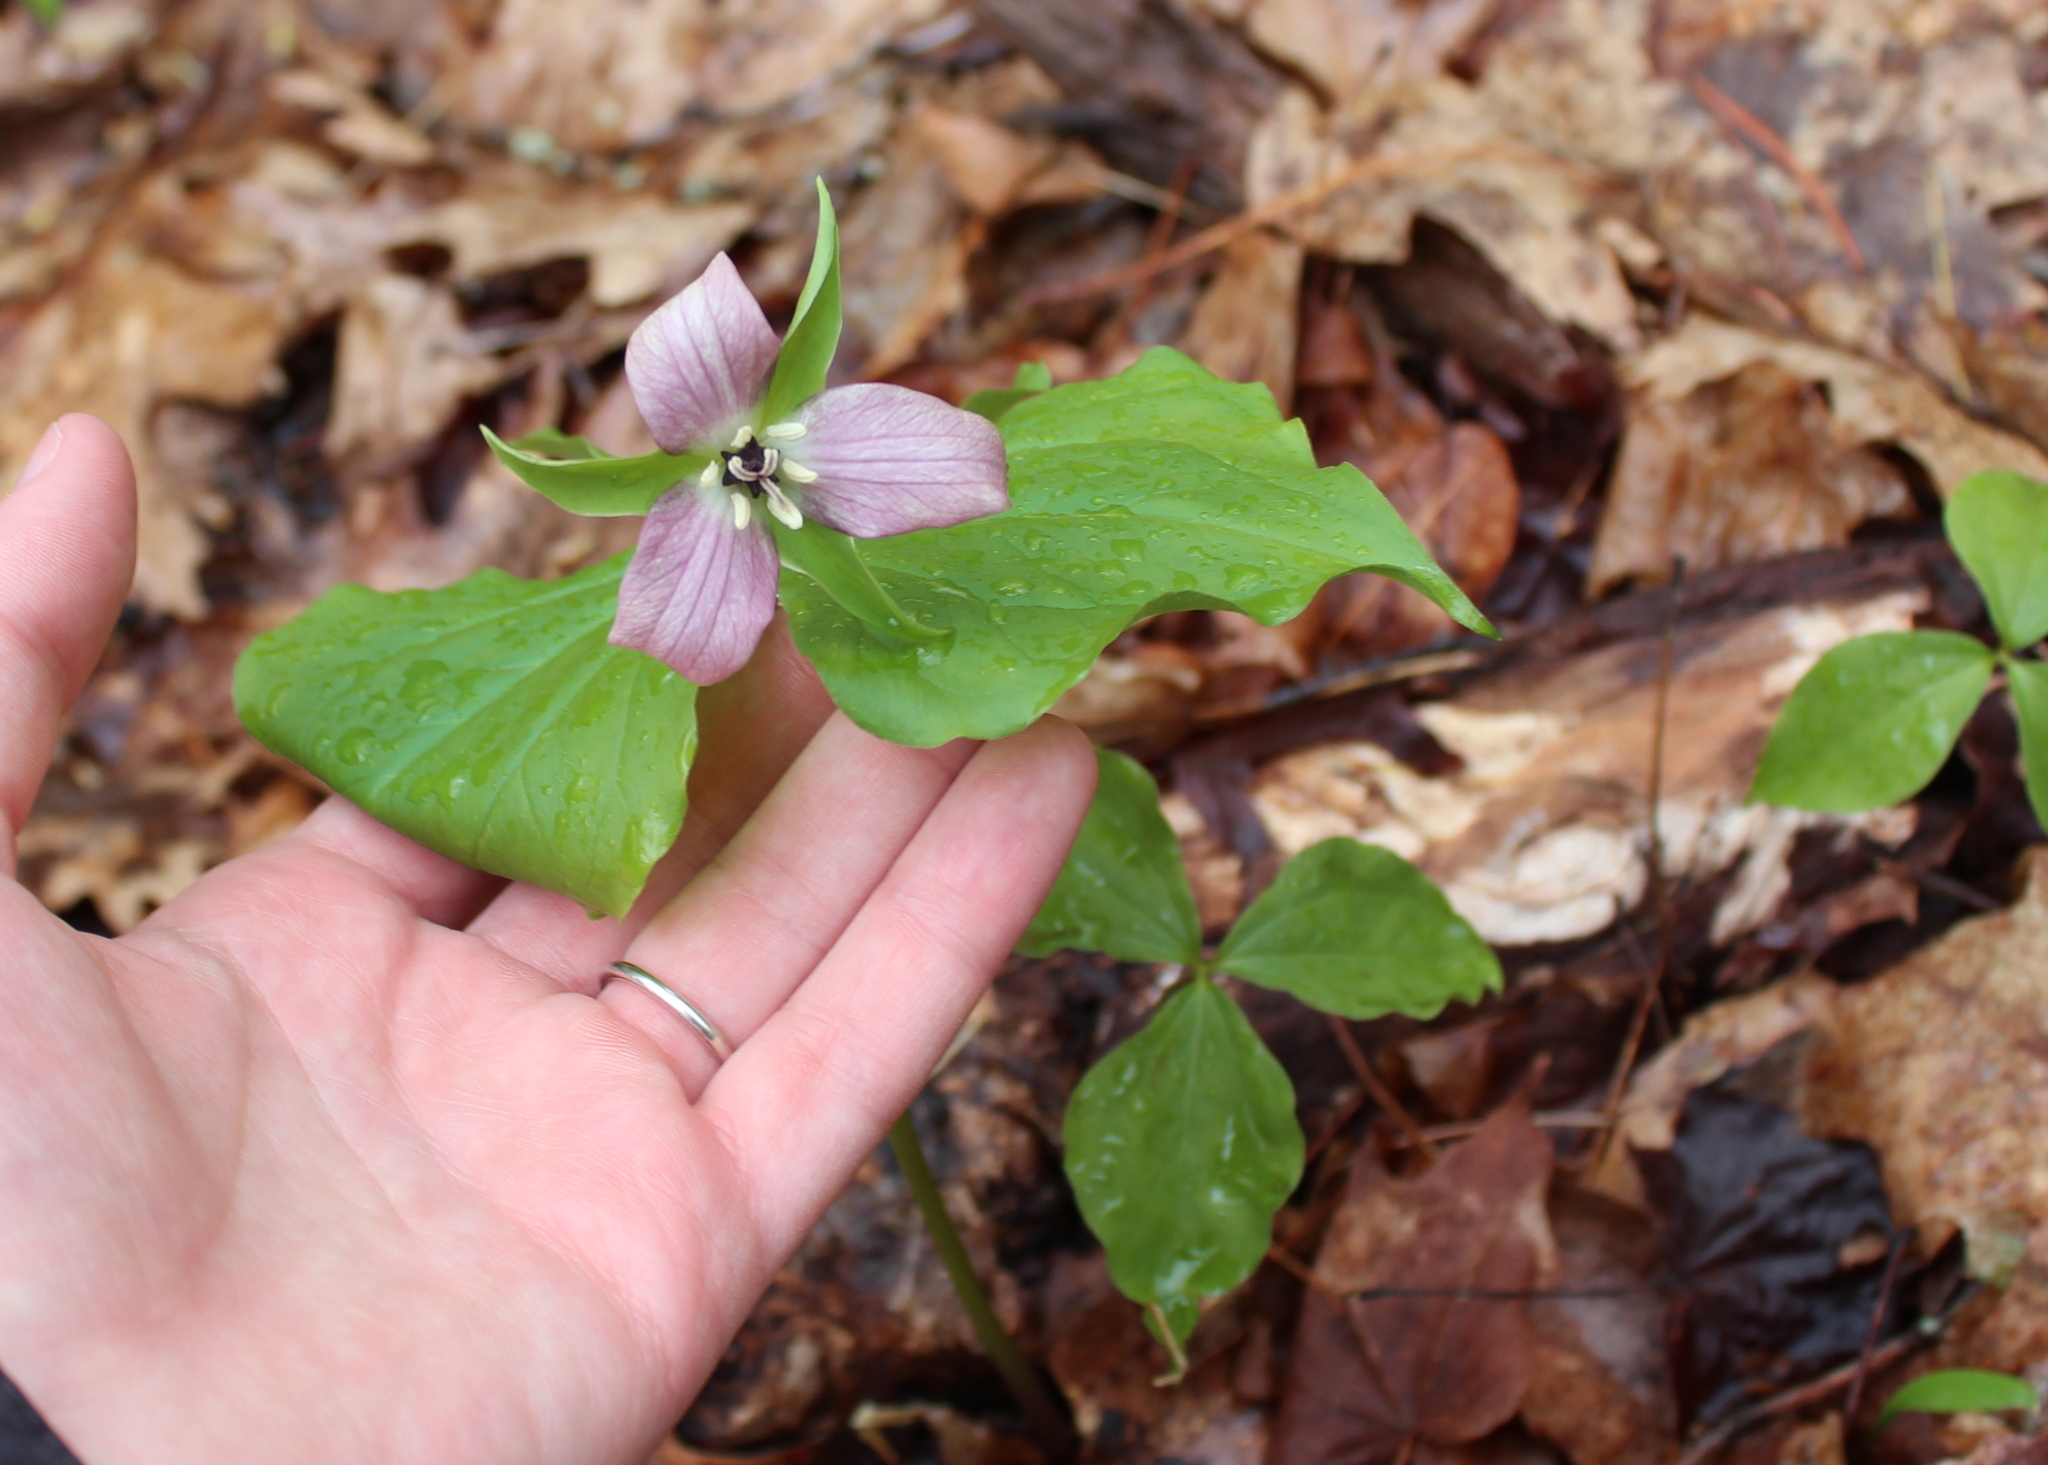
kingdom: Plantae
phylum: Tracheophyta
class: Liliopsida
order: Liliales
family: Melanthiaceae
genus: Trillium
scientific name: Trillium erectum
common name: Purple trillium
